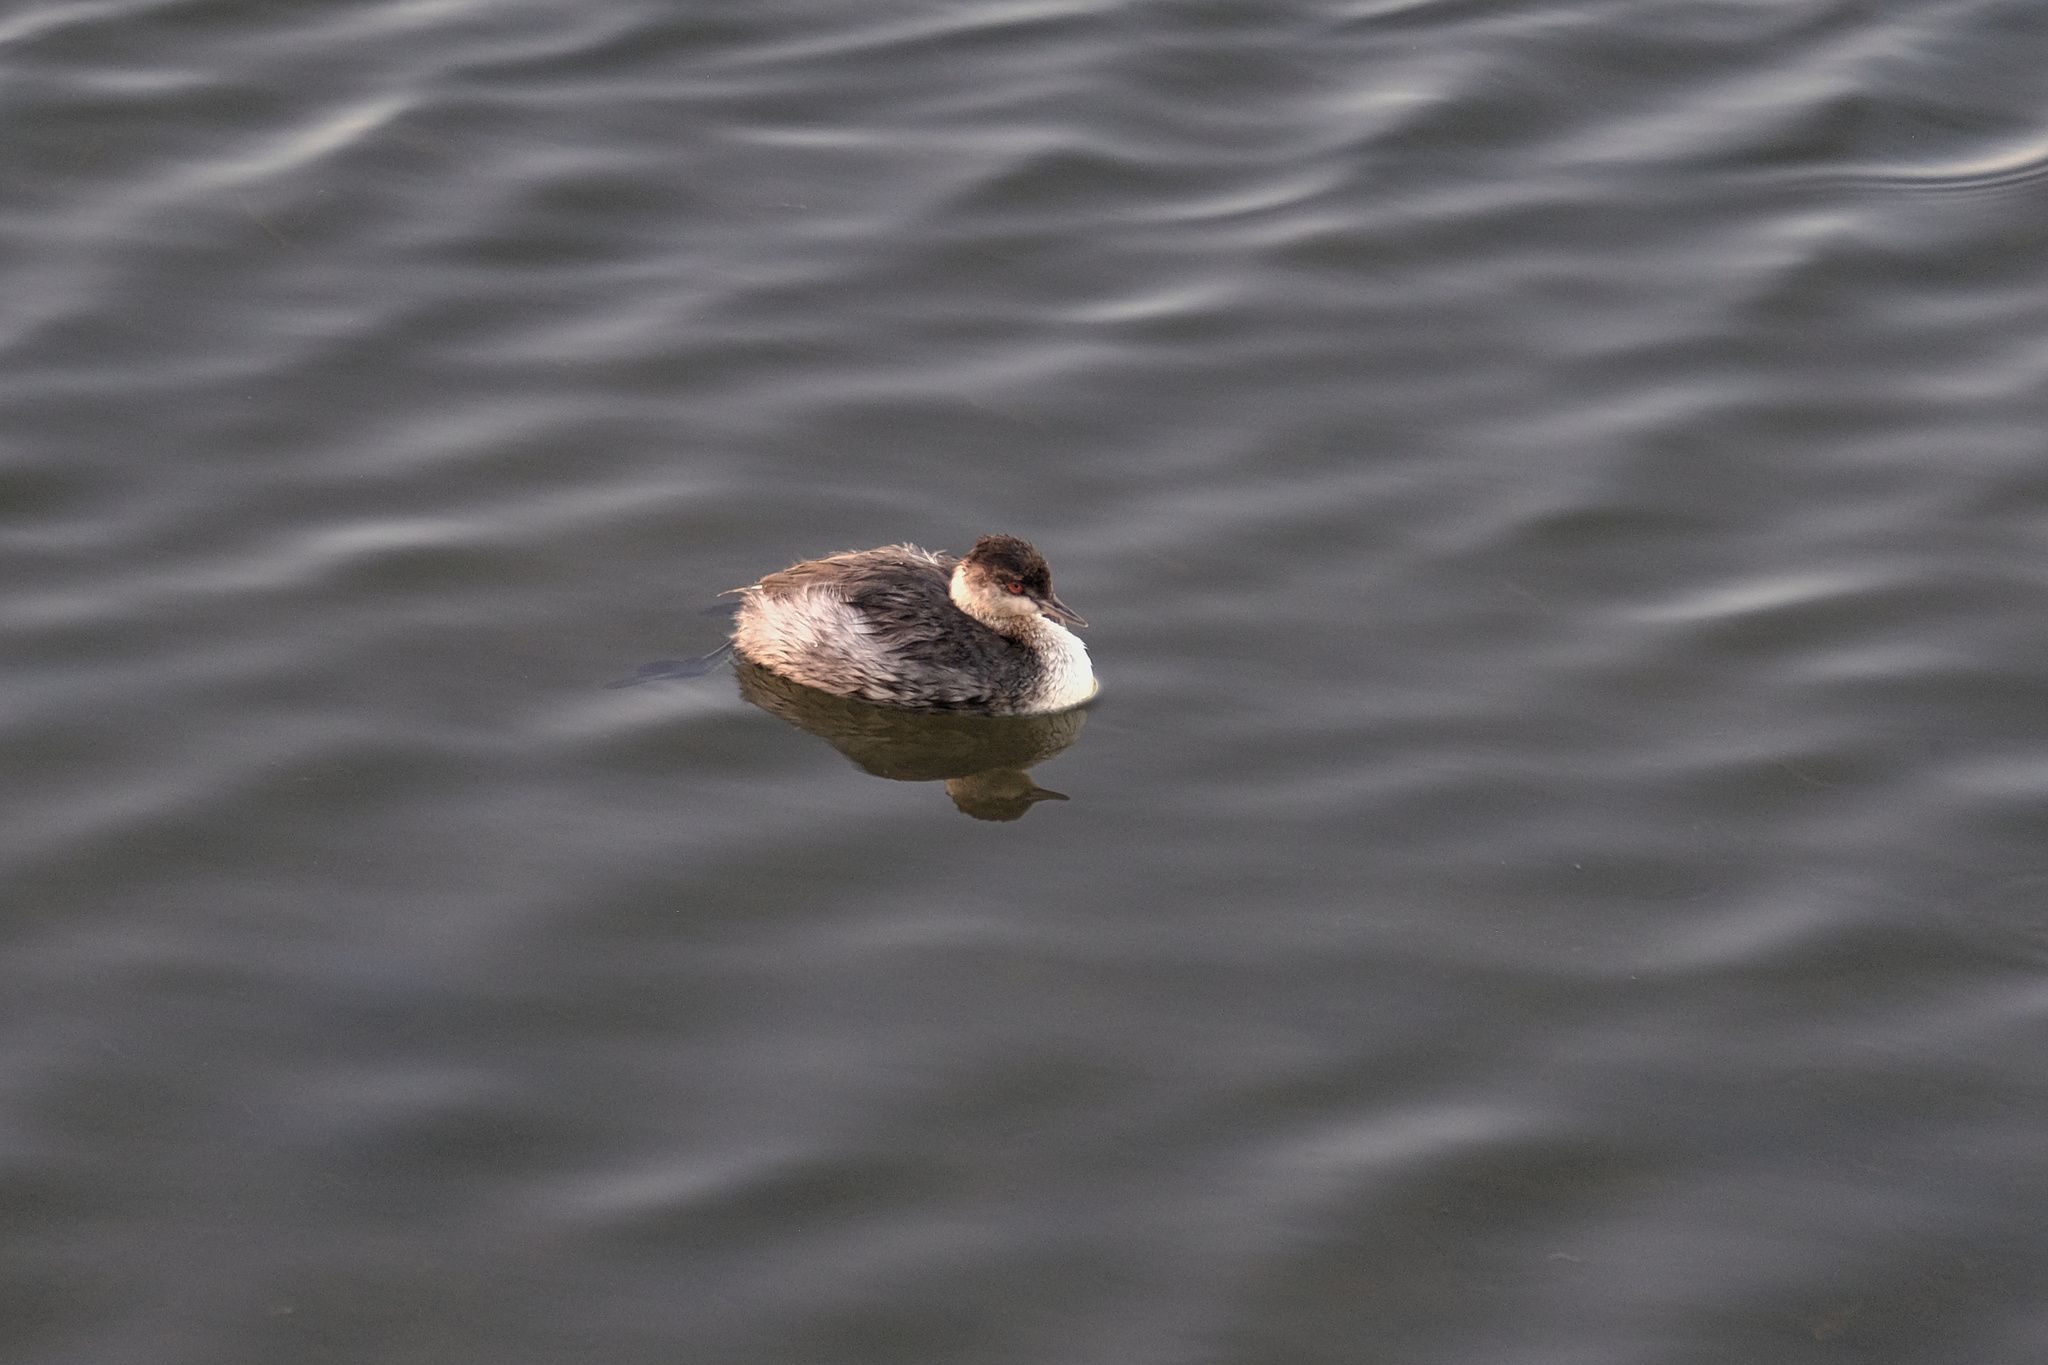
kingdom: Animalia
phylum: Chordata
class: Aves
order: Podicipediformes
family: Podicipedidae
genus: Podiceps
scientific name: Podiceps auritus
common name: Horned grebe
